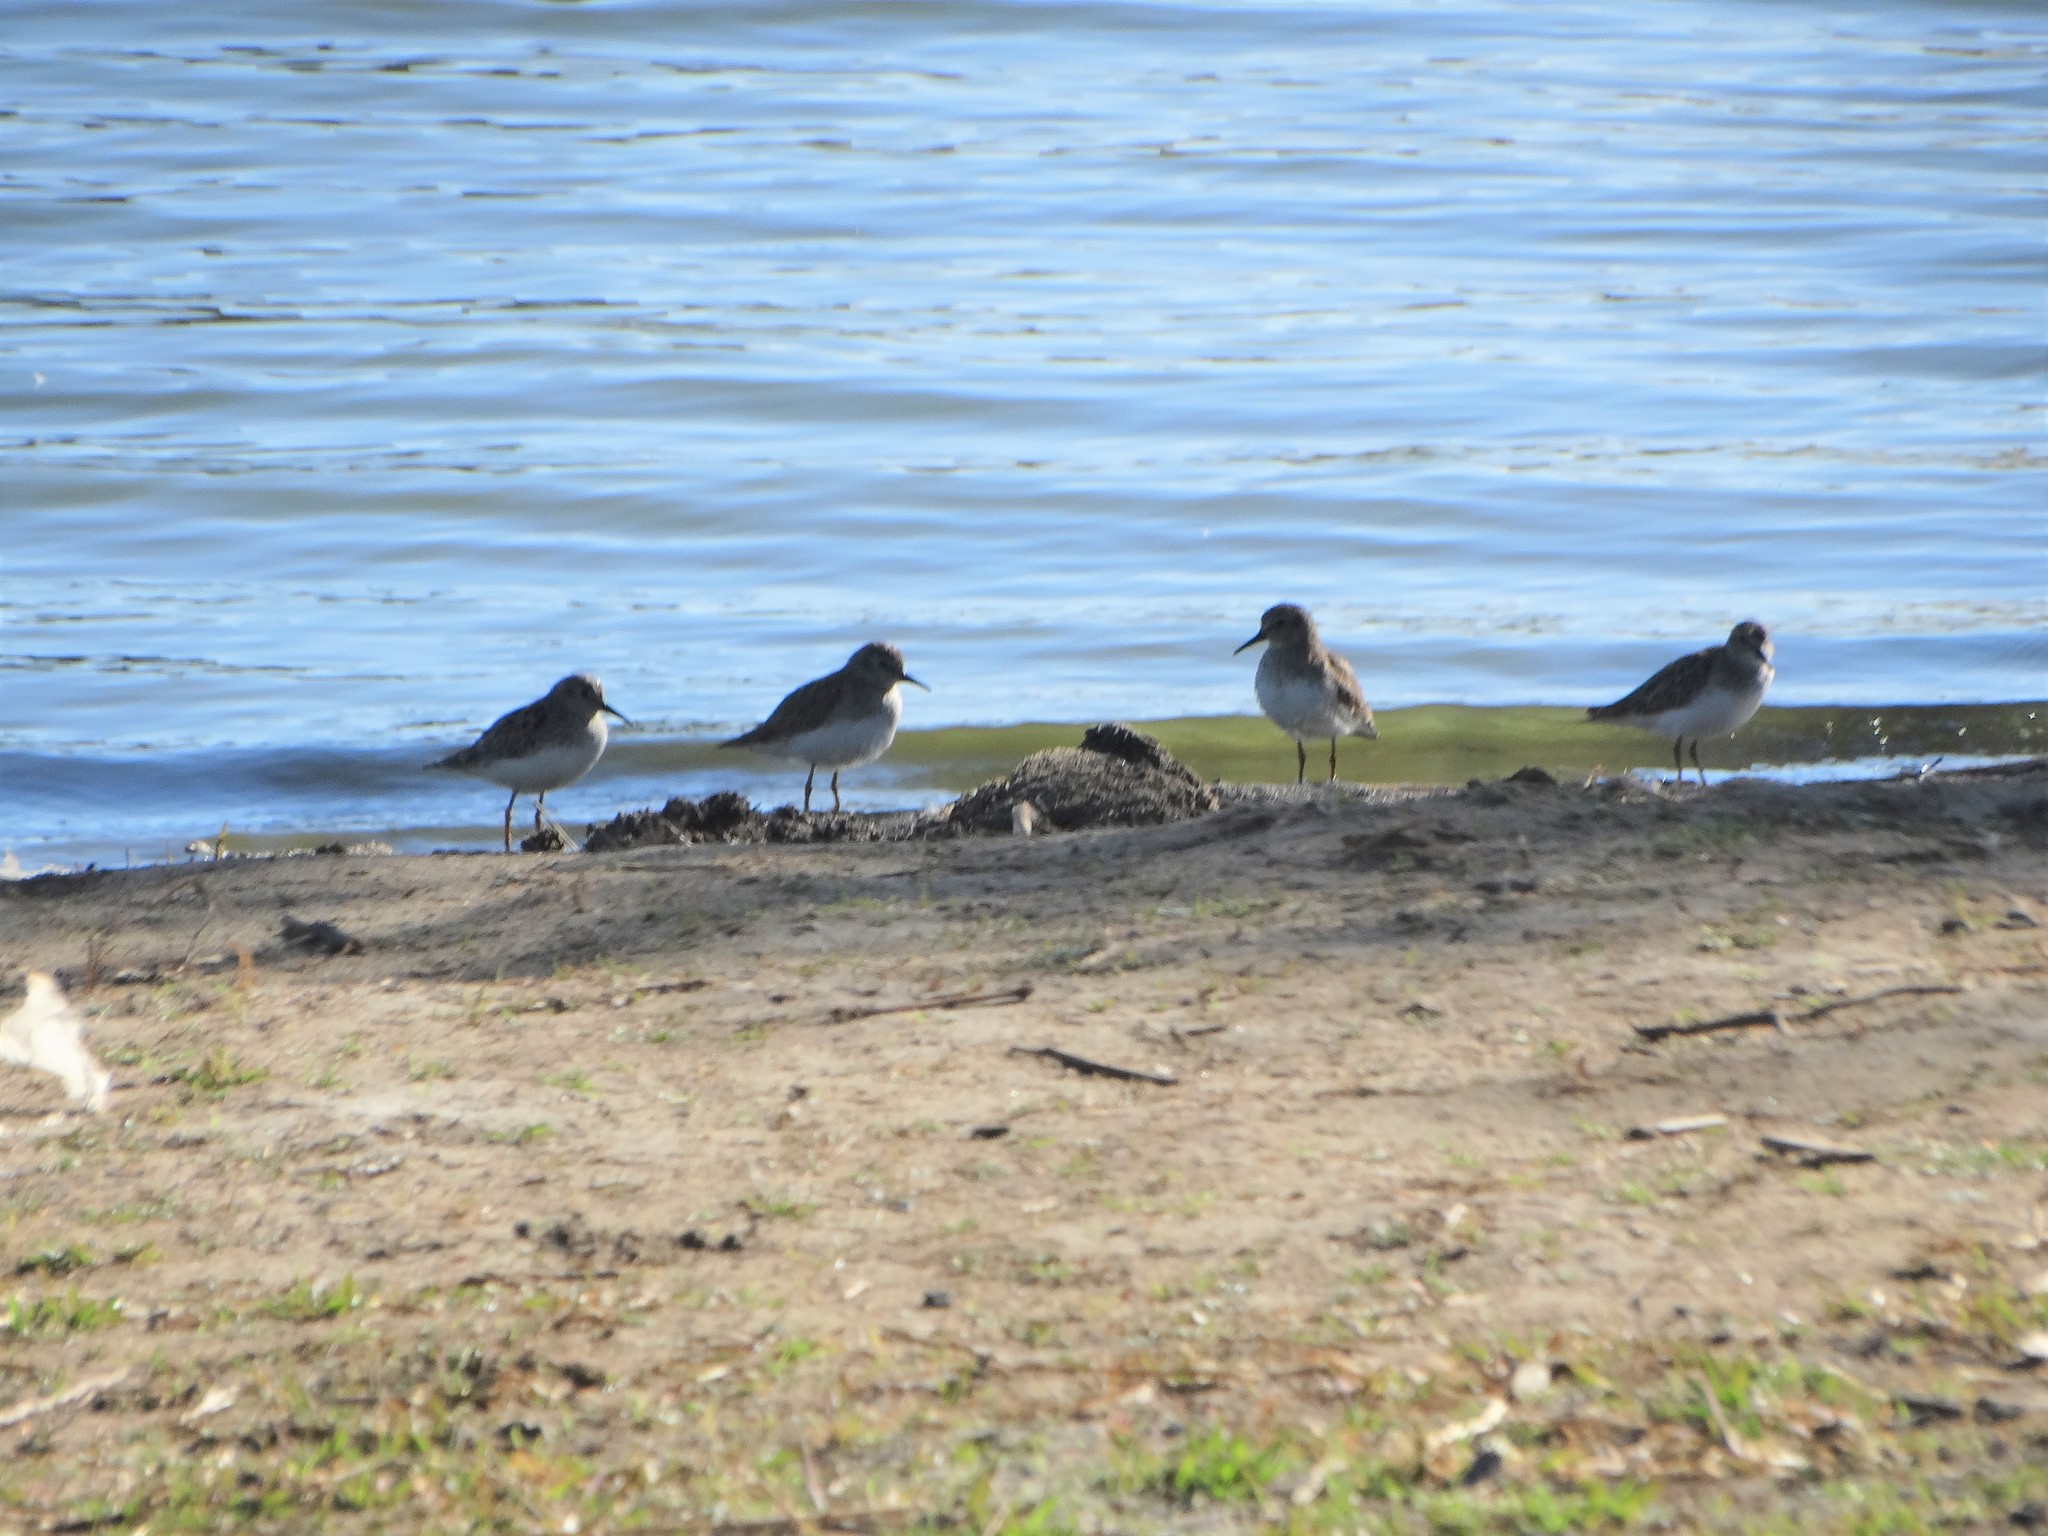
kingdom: Animalia
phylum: Chordata
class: Aves
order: Charadriiformes
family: Scolopacidae
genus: Calidris
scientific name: Calidris minutilla
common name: Least sandpiper
